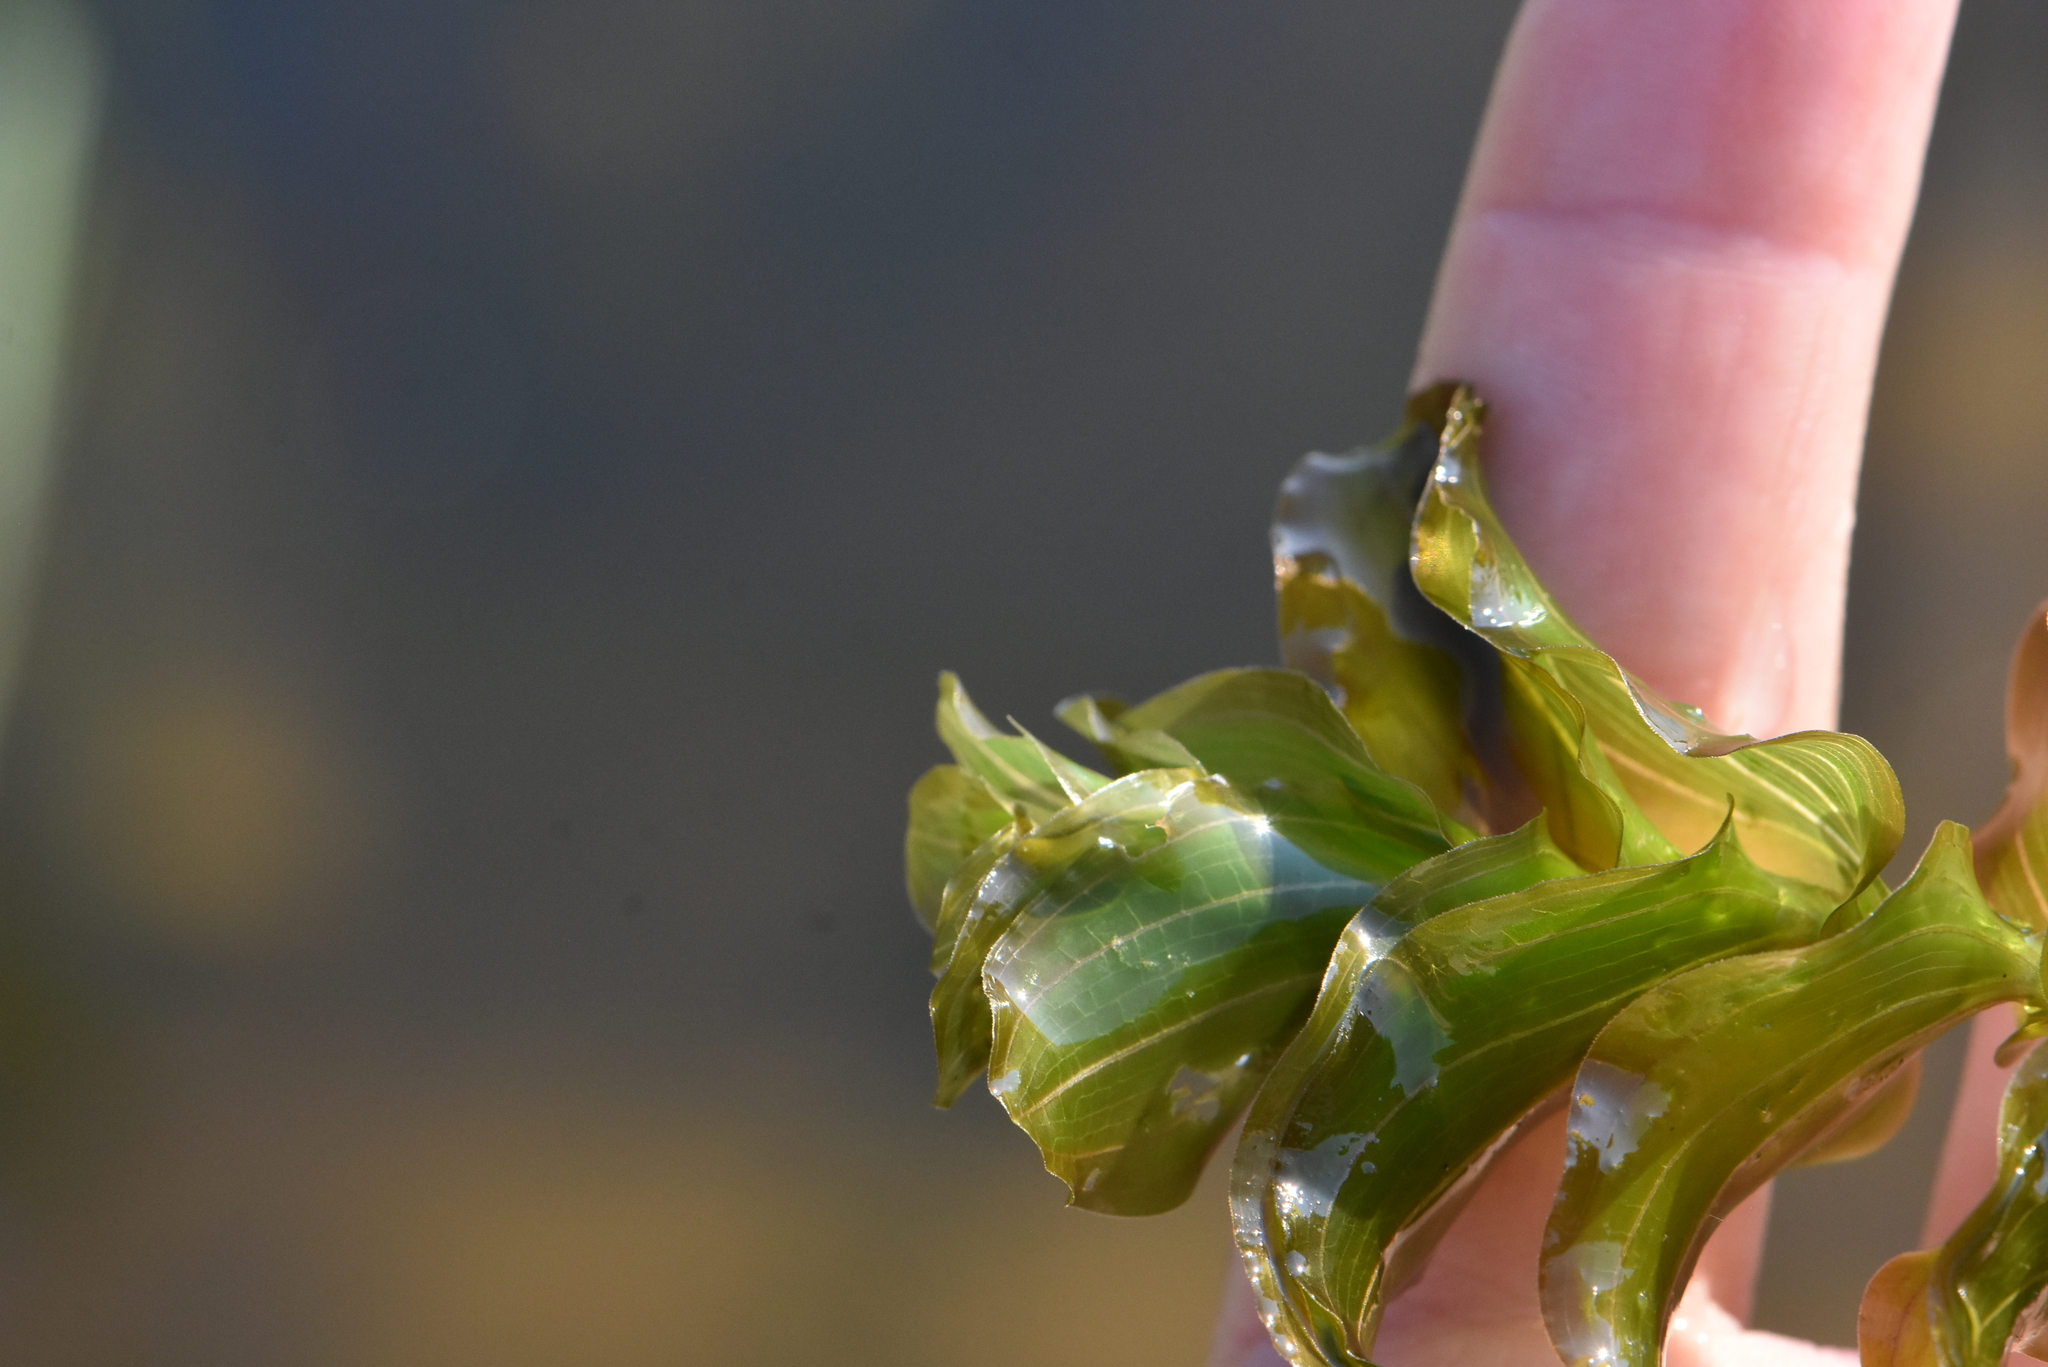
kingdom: Plantae
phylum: Tracheophyta
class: Liliopsida
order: Alismatales
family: Potamogetonaceae
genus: Potamogeton
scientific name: Potamogeton perfoliatus
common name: Perfoliate pondweed
